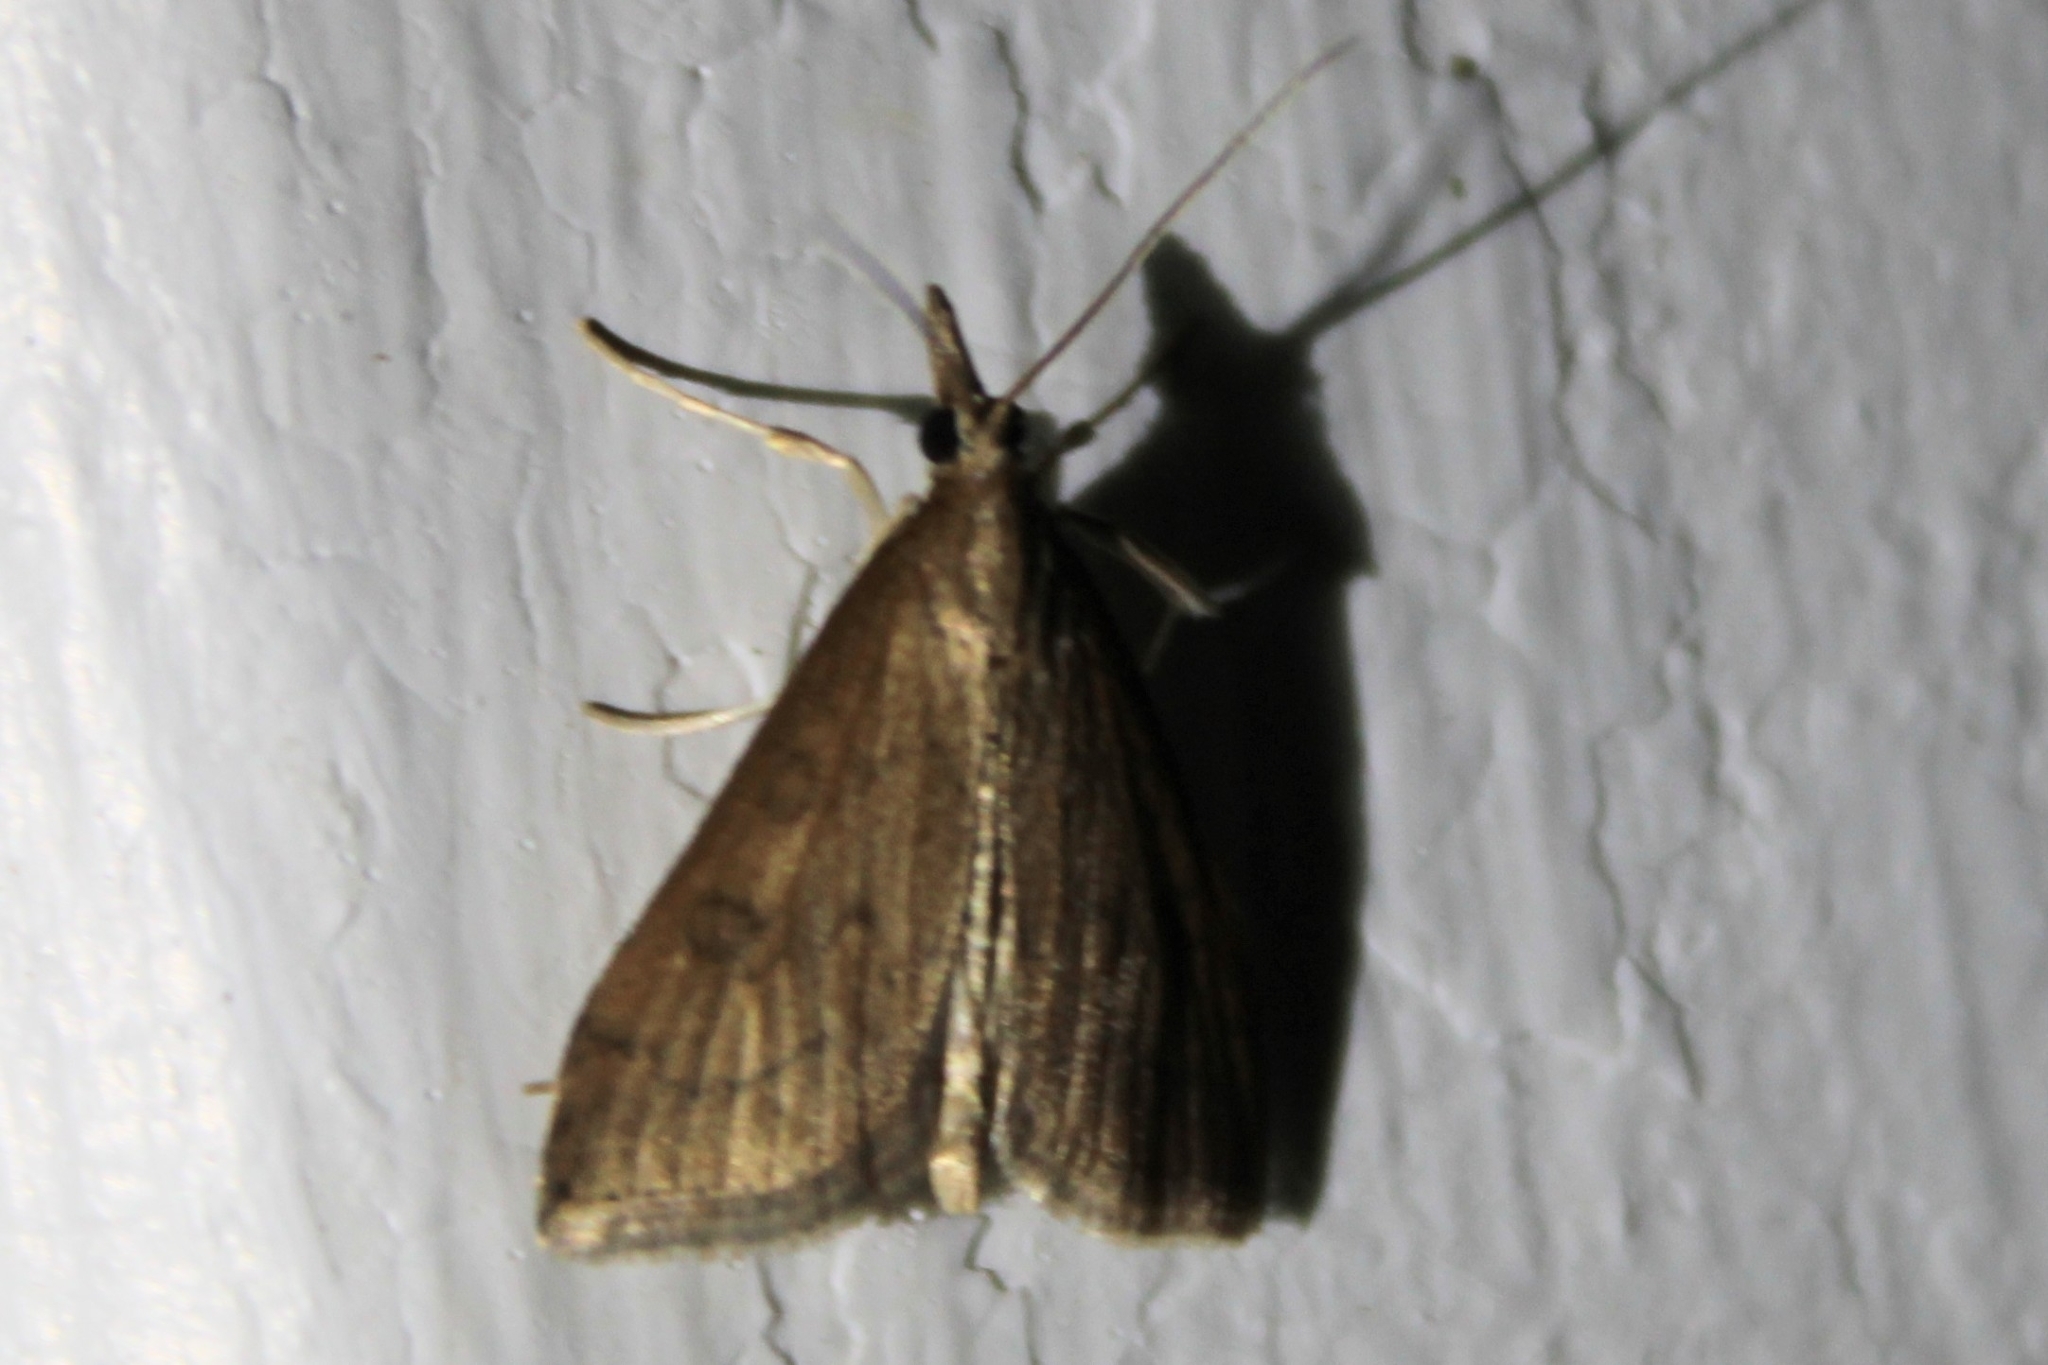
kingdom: Animalia
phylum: Arthropoda
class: Insecta
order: Lepidoptera
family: Crambidae
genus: Udea
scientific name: Udea rubigalis
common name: Celery leaftier moth
